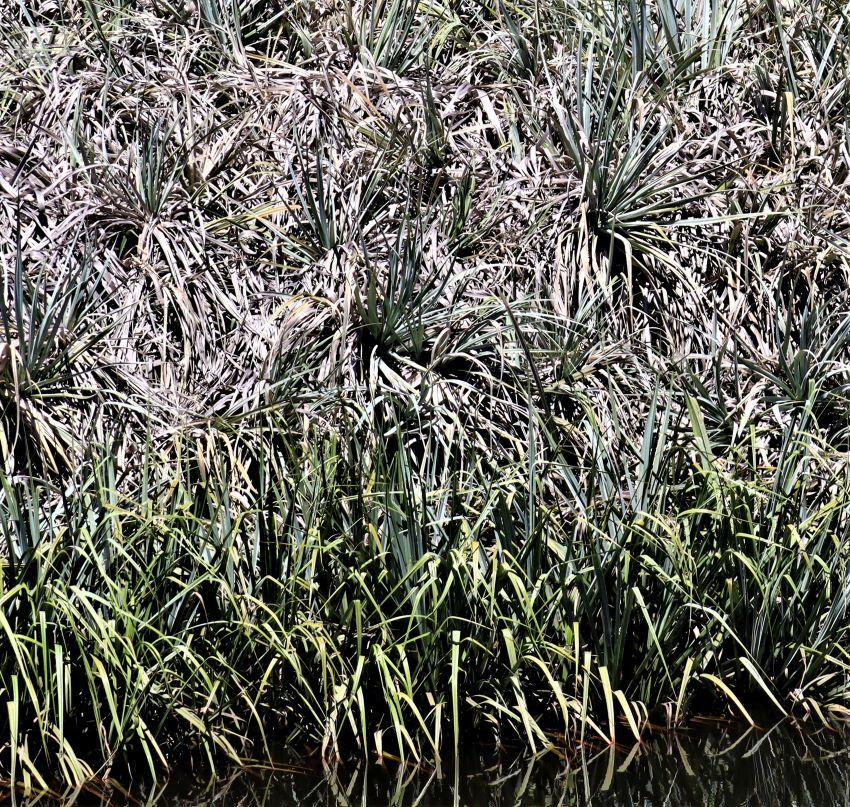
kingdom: Plantae
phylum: Tracheophyta
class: Liliopsida
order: Poales
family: Thurniaceae
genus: Prionium
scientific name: Prionium serratum
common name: Palmiet
